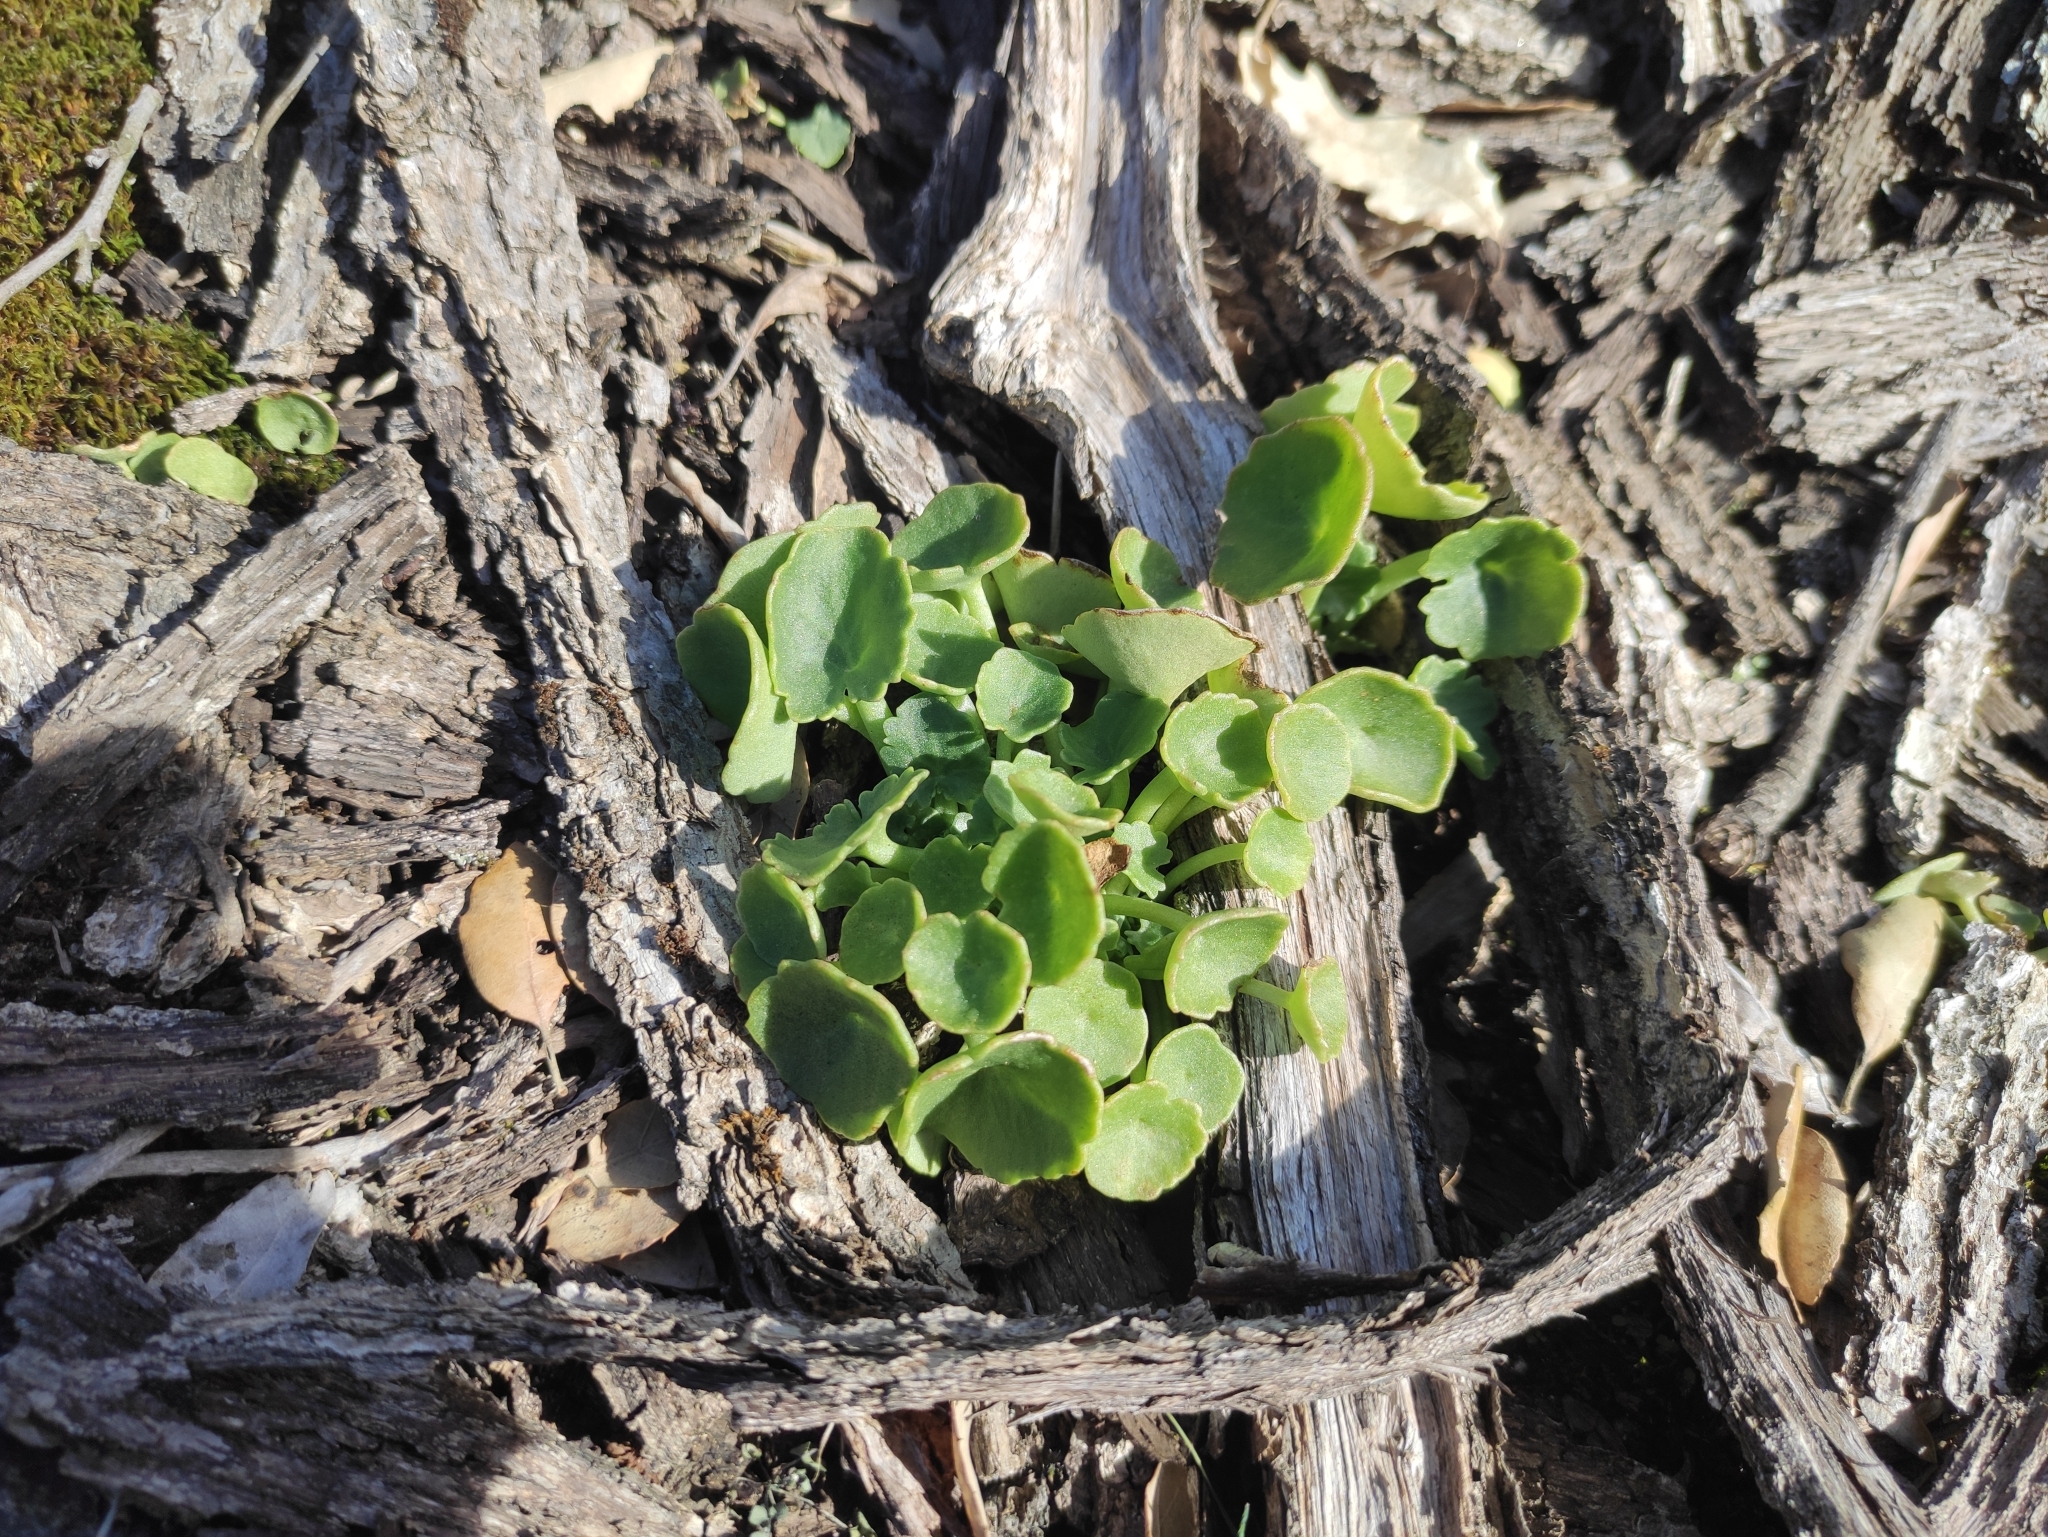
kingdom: Plantae
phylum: Tracheophyta
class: Magnoliopsida
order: Saxifragales
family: Crassulaceae
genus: Umbilicus
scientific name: Umbilicus rupestris
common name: Navelwort
